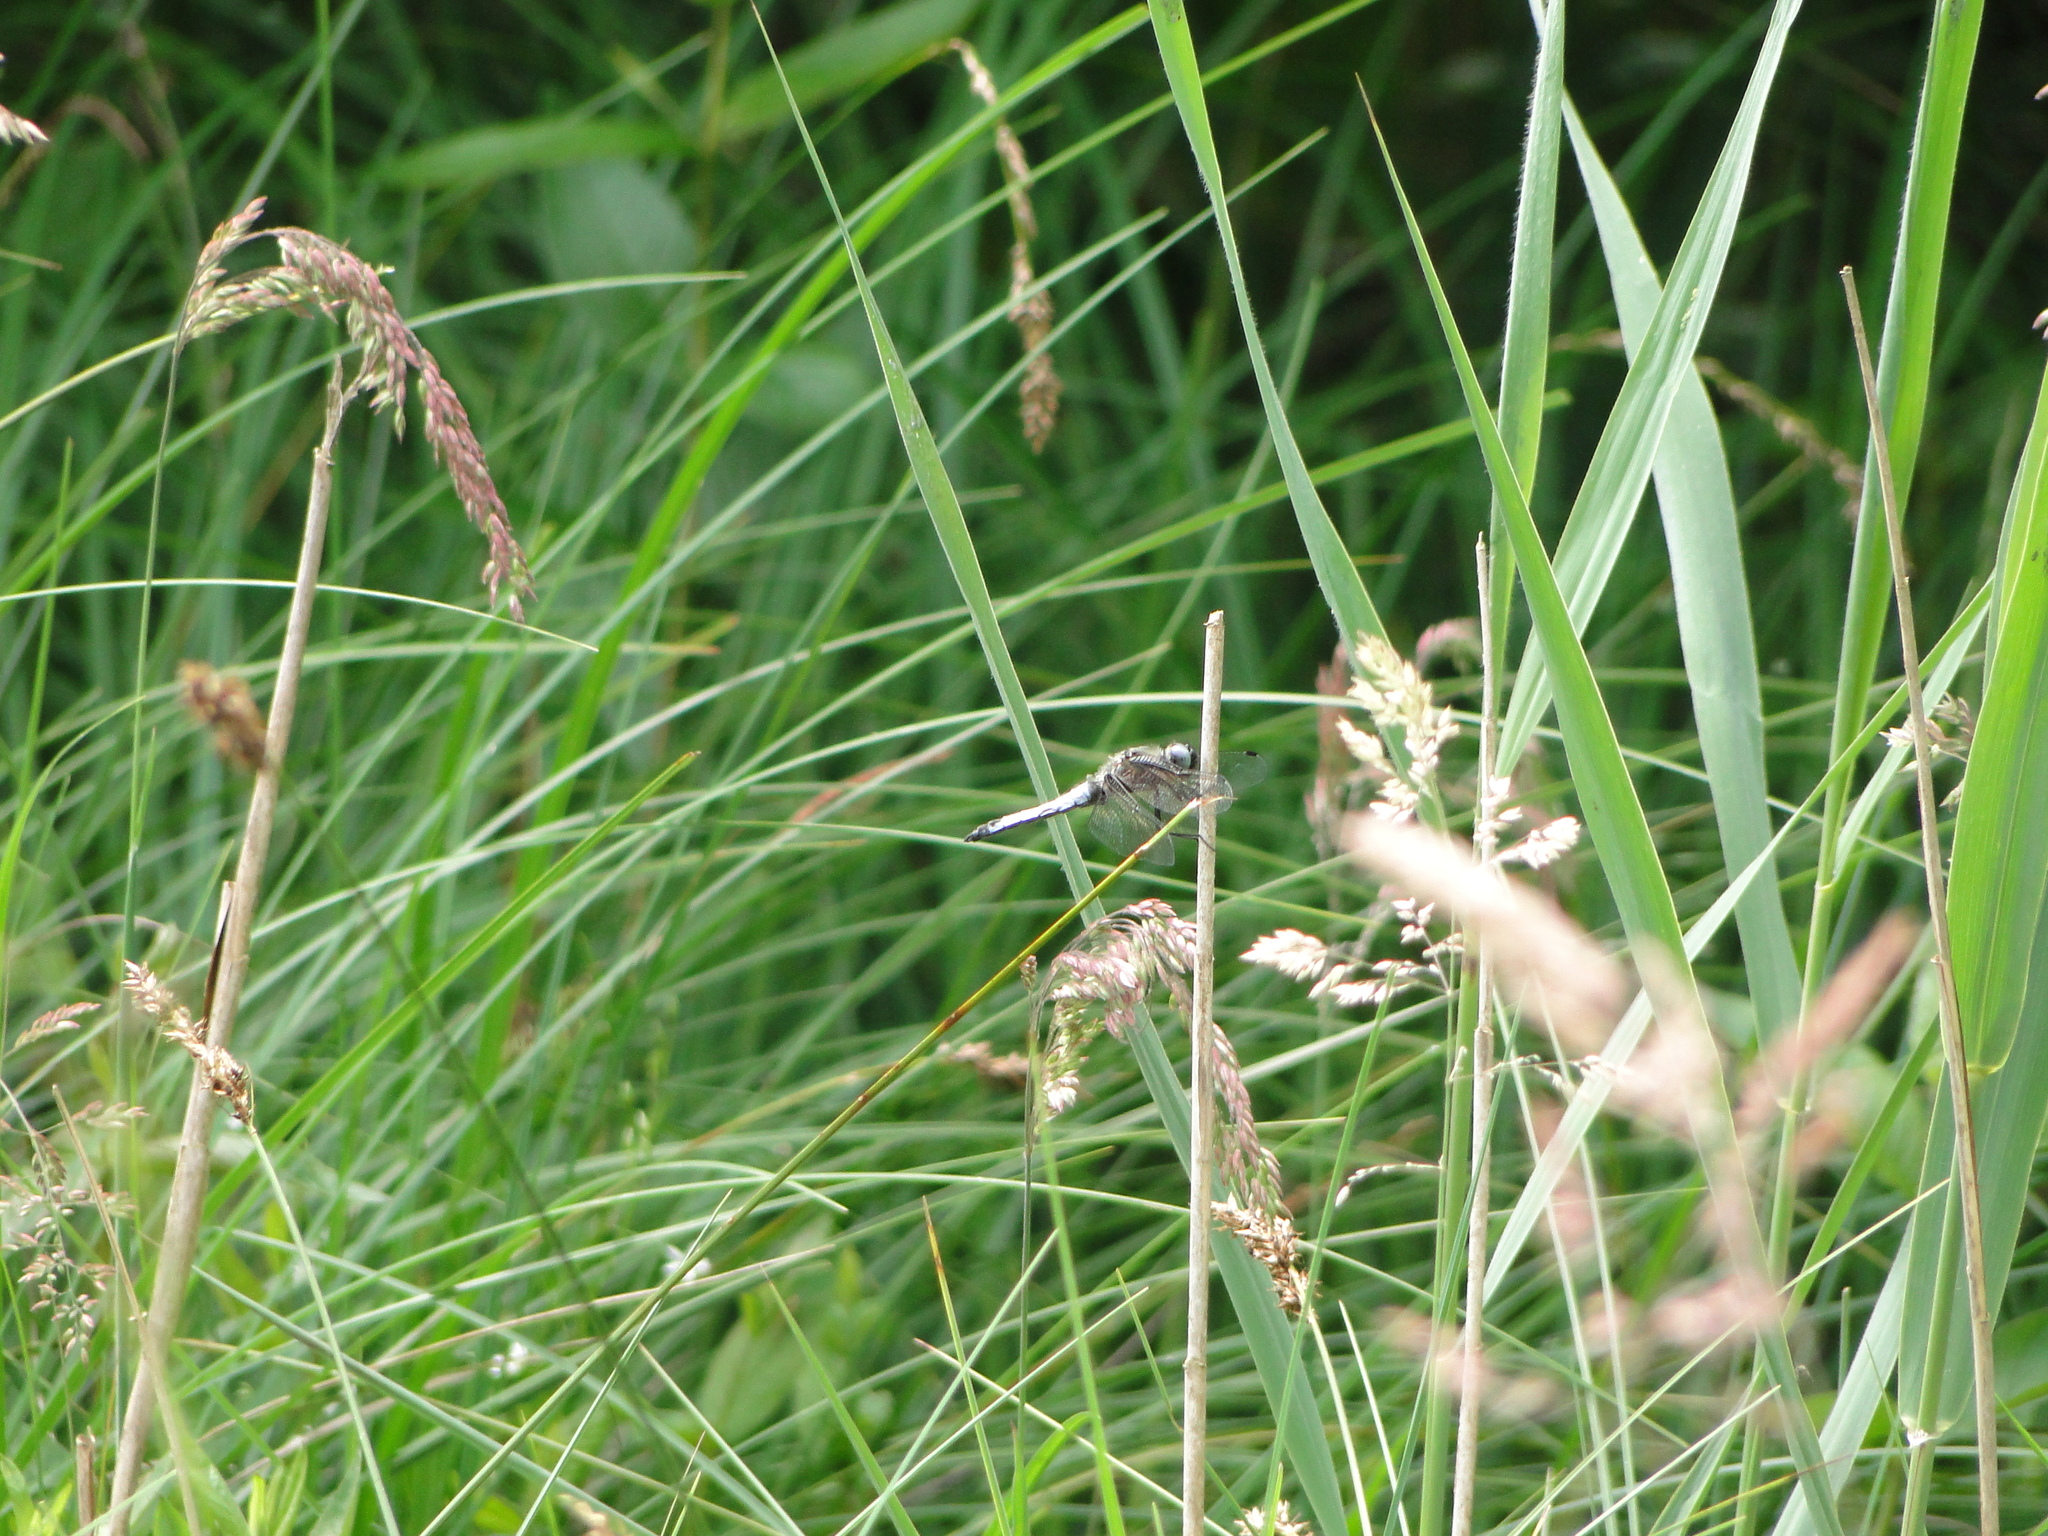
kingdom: Animalia
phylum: Arthropoda
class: Insecta
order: Odonata
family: Libellulidae
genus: Libellula
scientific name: Libellula fulva
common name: Blue chaser
